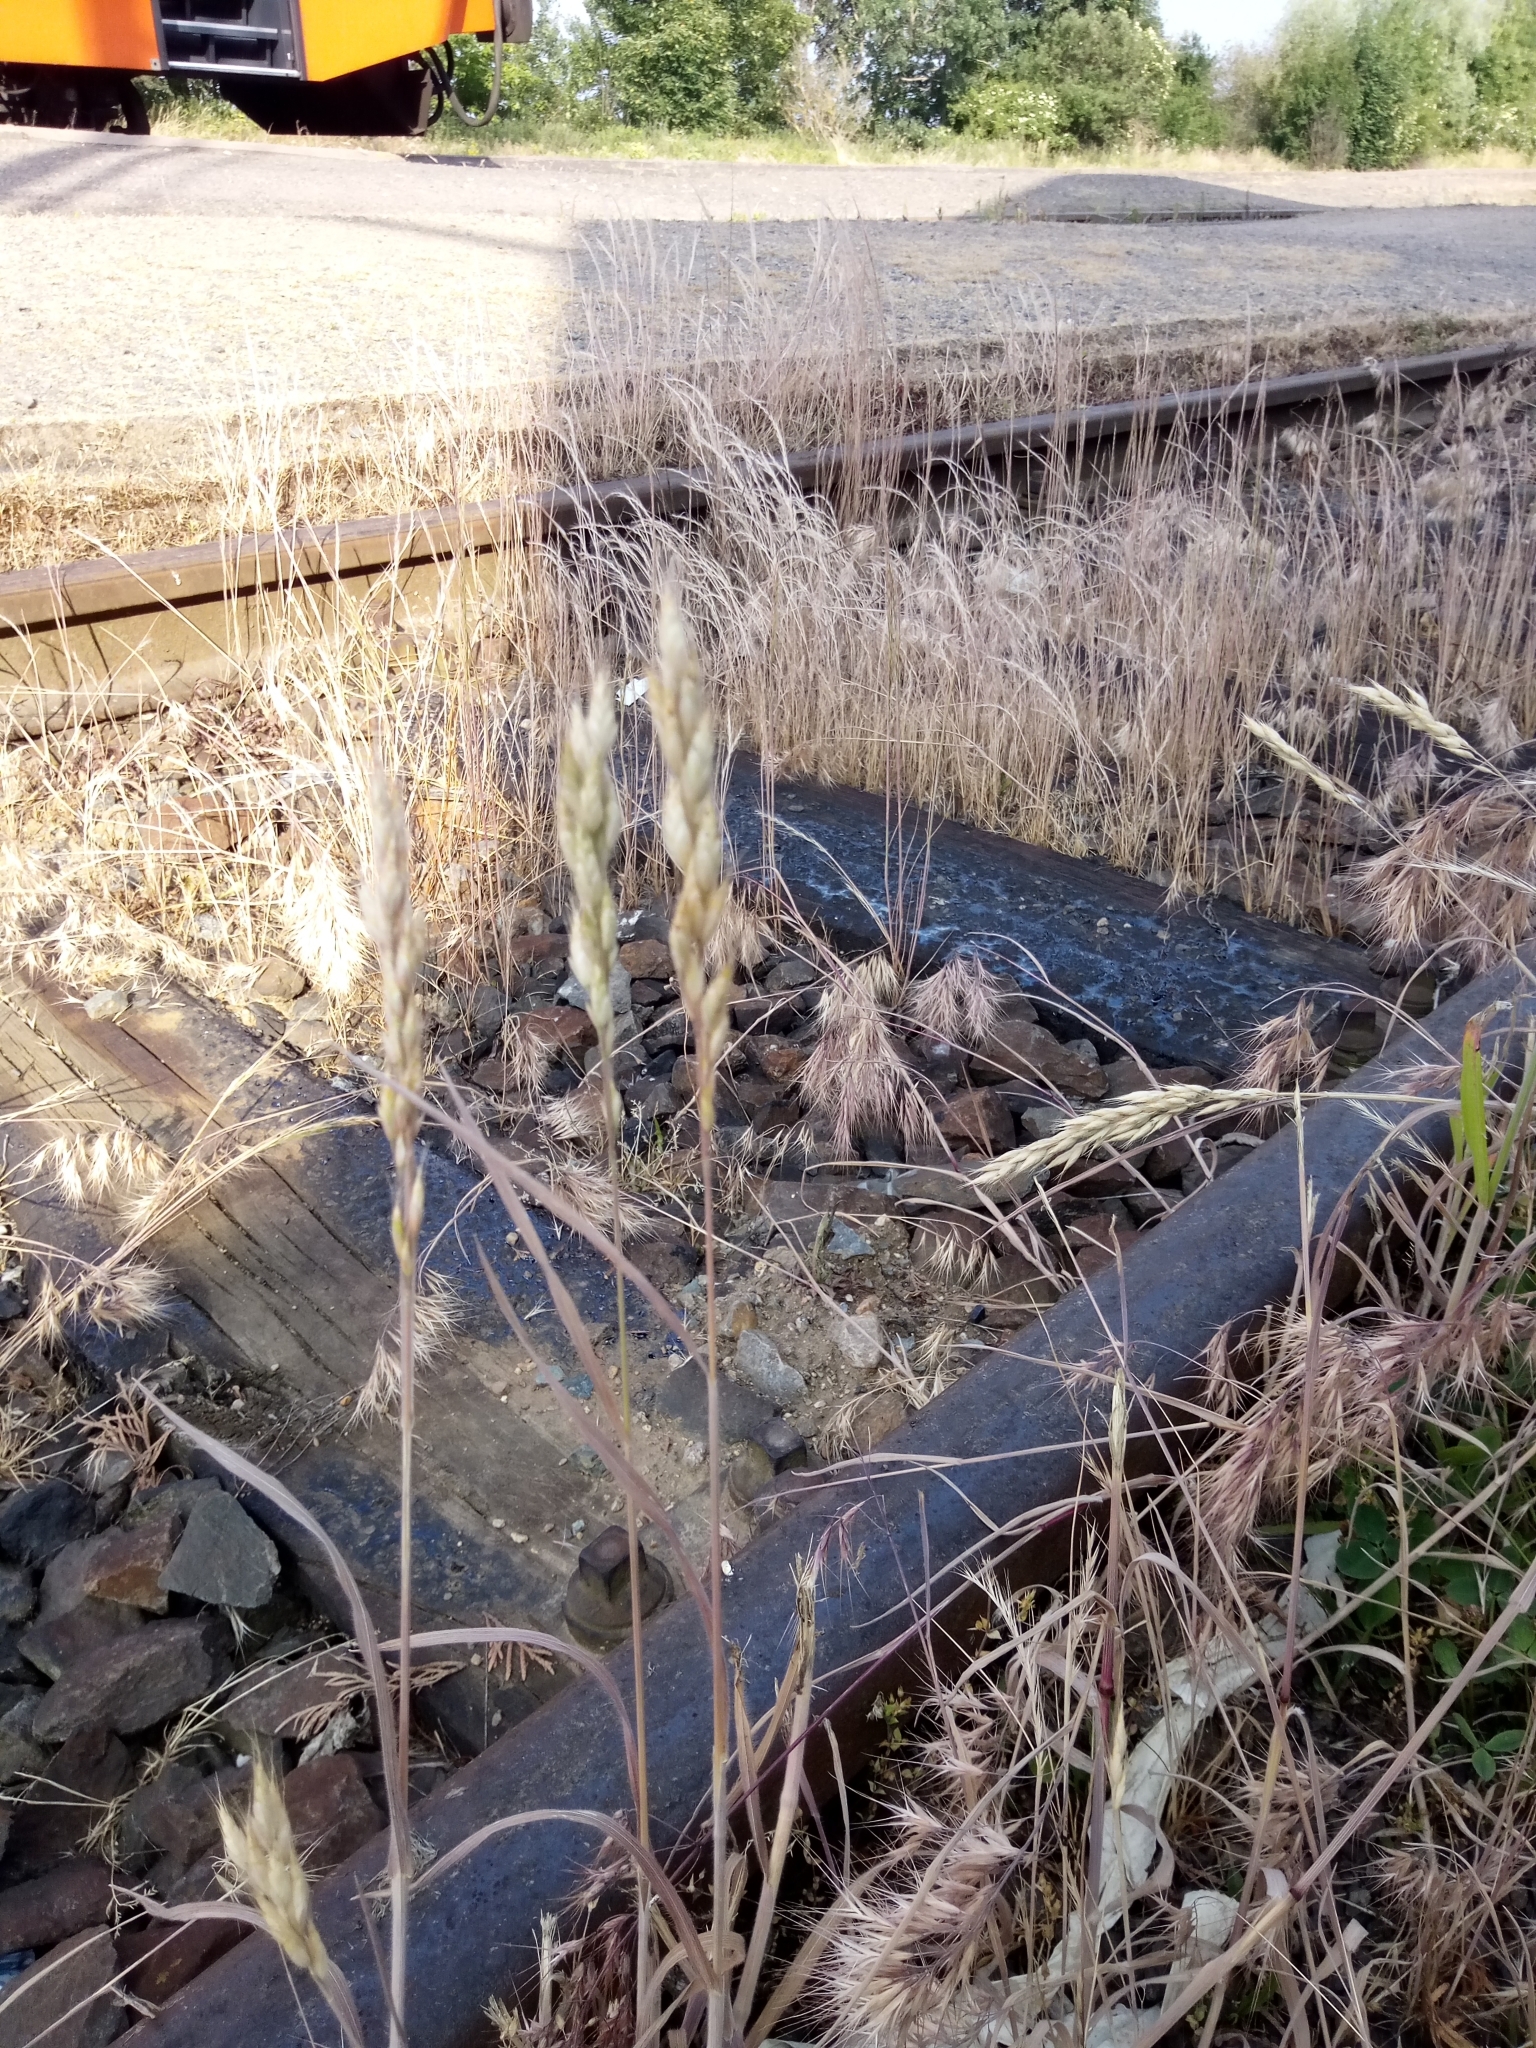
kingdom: Plantae
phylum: Tracheophyta
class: Liliopsida
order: Poales
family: Poaceae
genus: Bromus
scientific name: Bromus hordeaceus
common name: Soft brome
